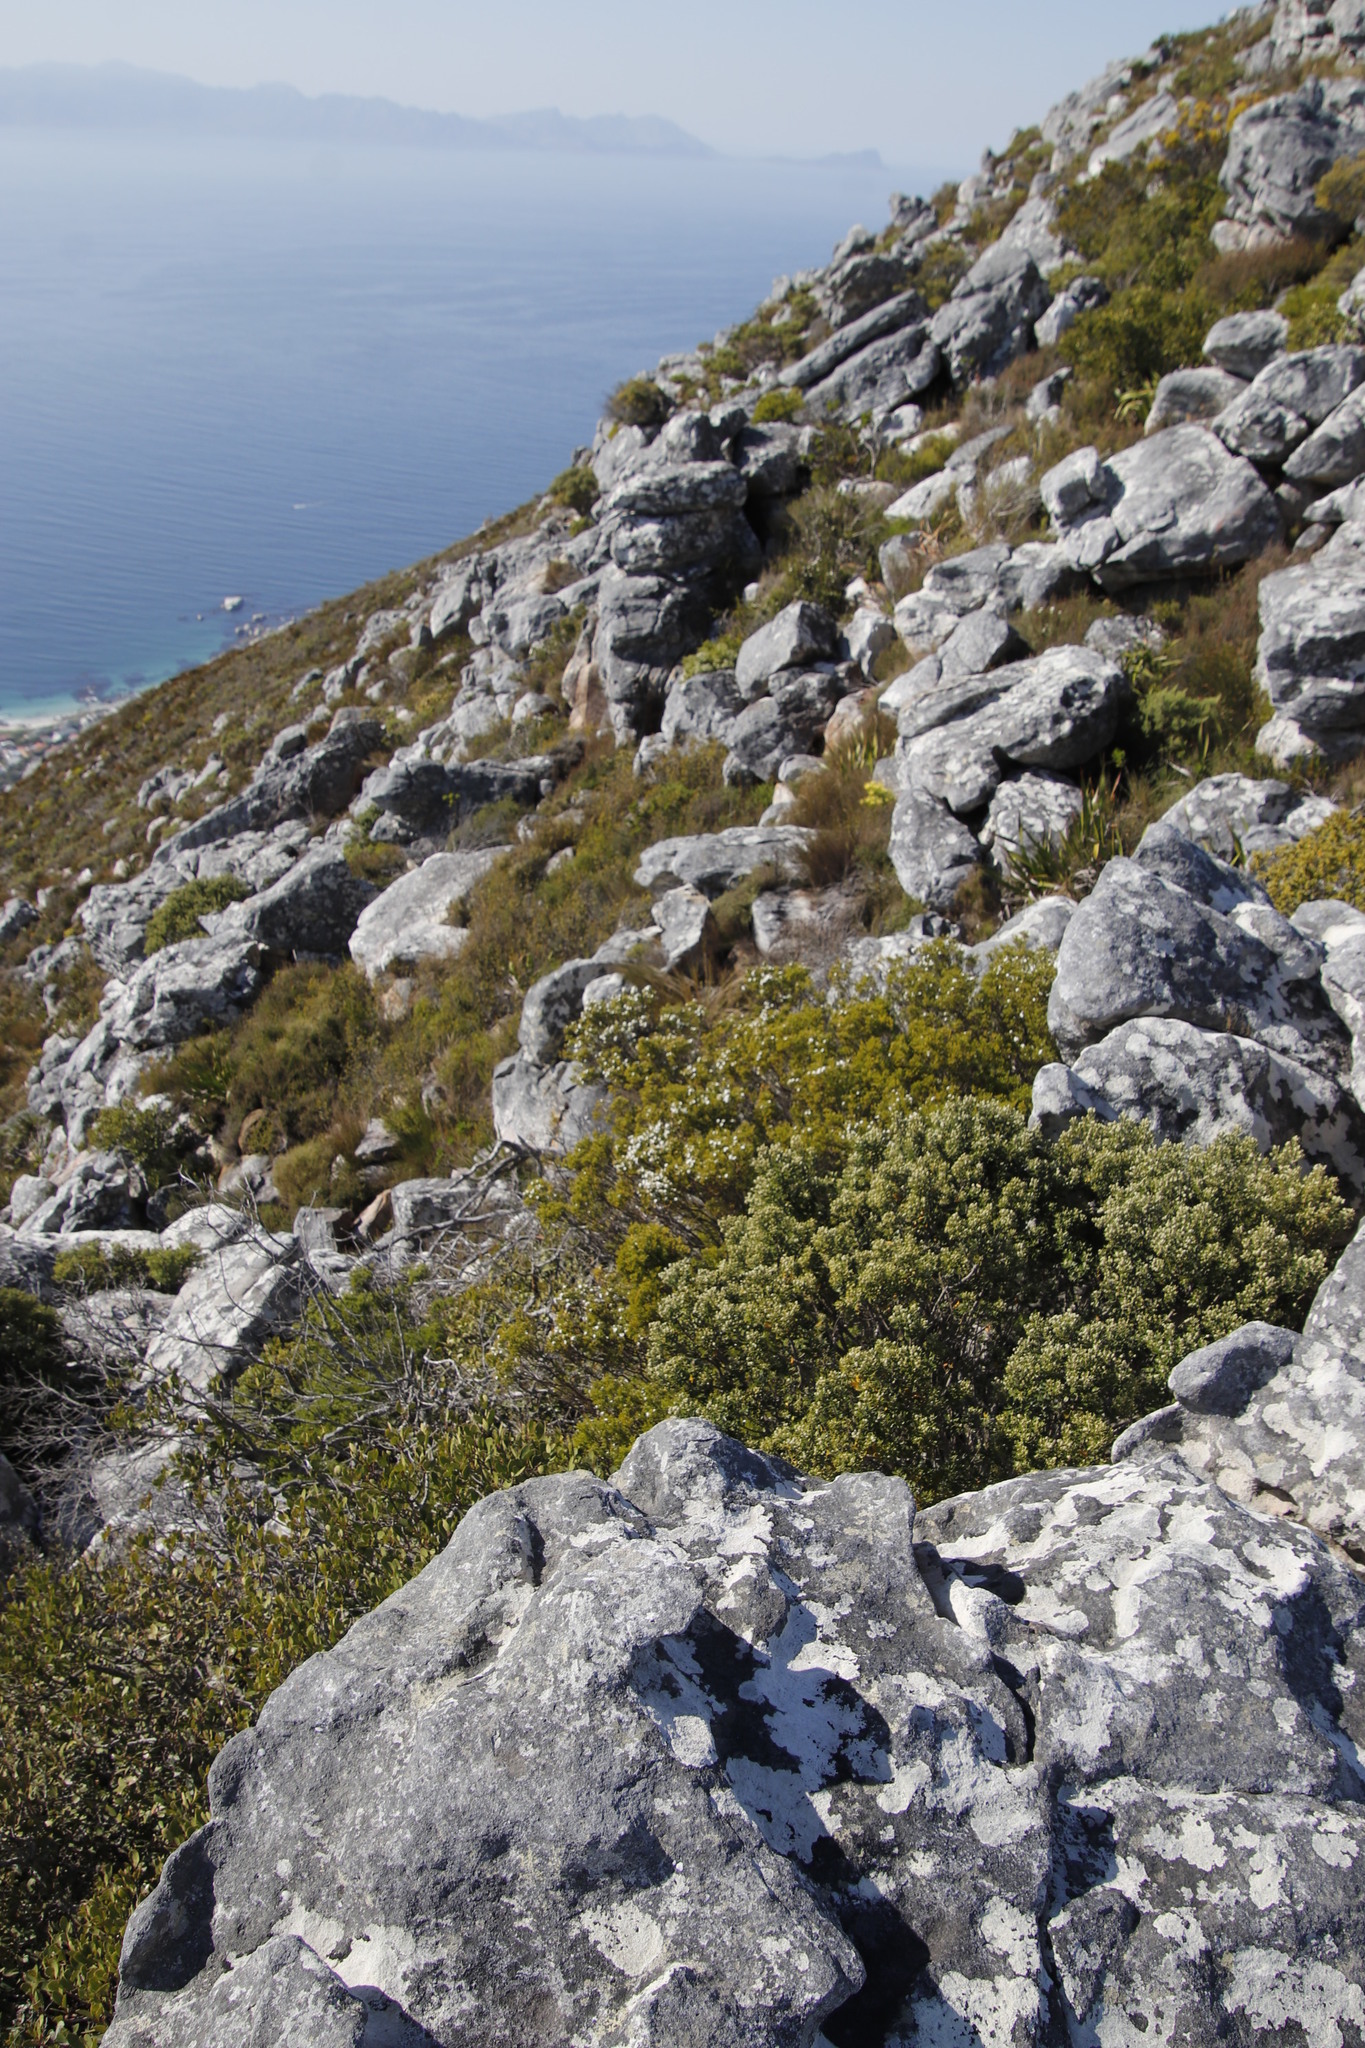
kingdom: Plantae
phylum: Tracheophyta
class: Magnoliopsida
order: Sapindales
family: Rutaceae
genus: Coleonema
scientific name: Coleonema album
